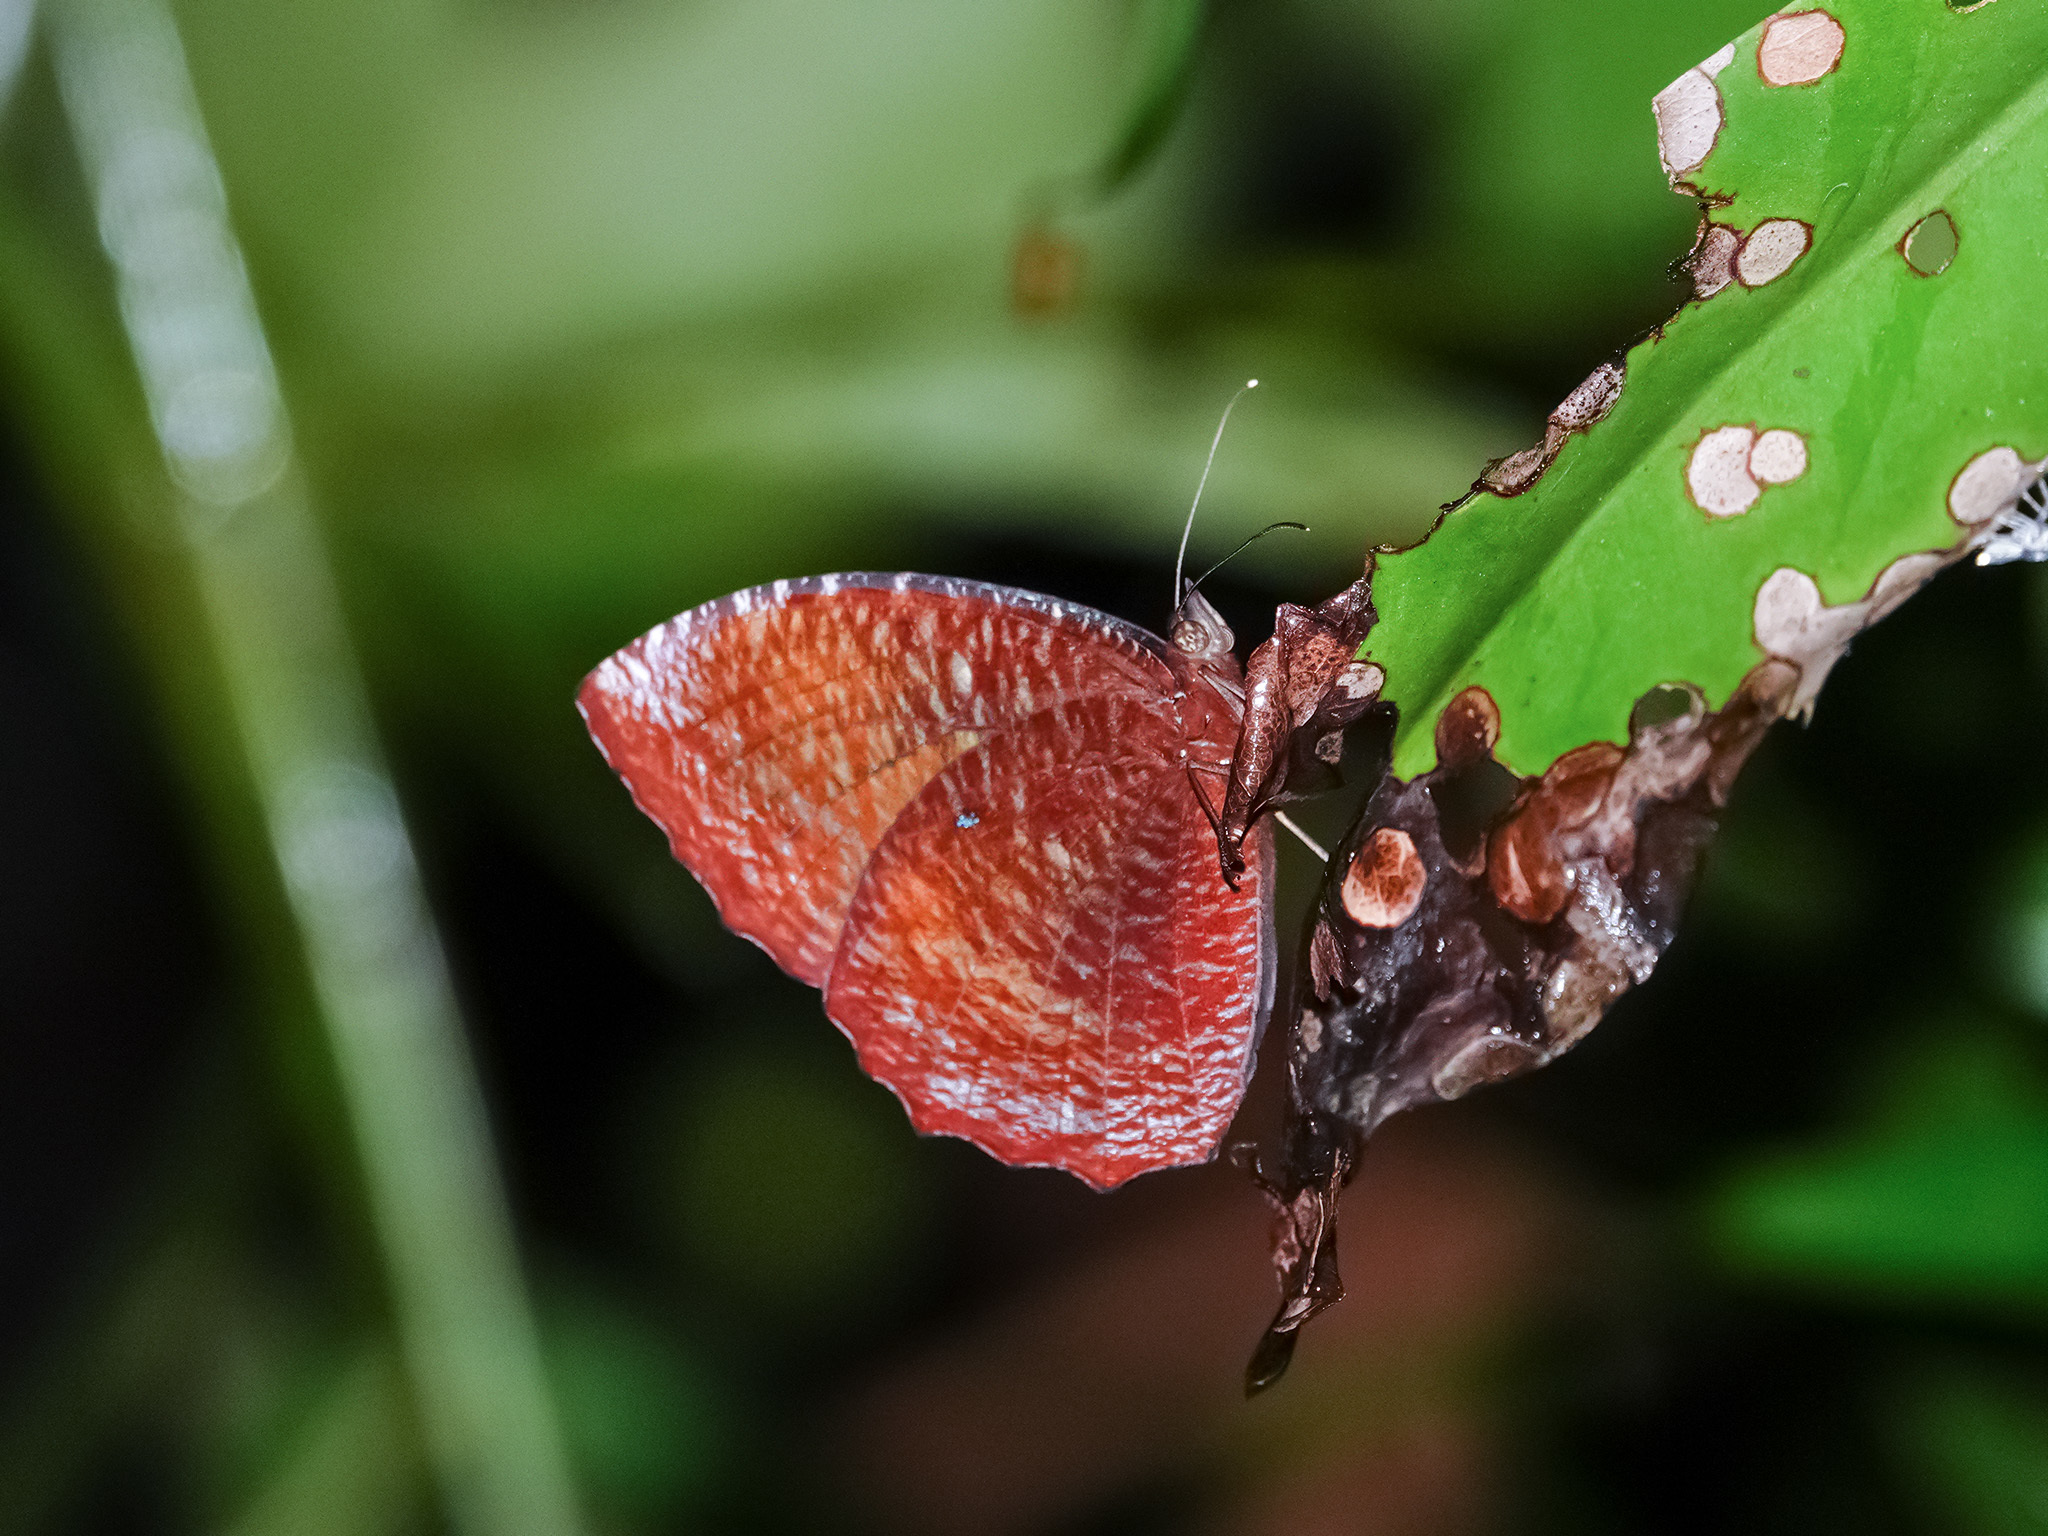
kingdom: Animalia
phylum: Arthropoda
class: Insecta
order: Lepidoptera
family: Nymphalidae
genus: Elymnias
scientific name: Elymnias hypermnestra
